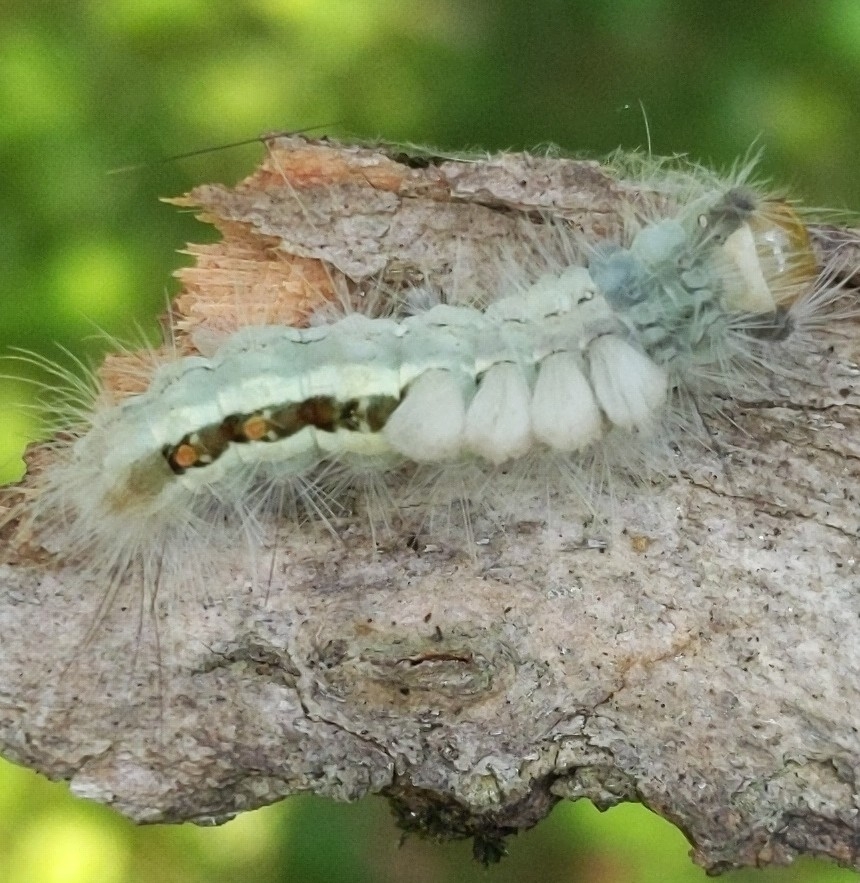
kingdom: Animalia
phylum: Arthropoda
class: Insecta
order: Lepidoptera
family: Erebidae
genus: Orgyia
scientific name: Orgyia leucostigma
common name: White-marked tussock moth
